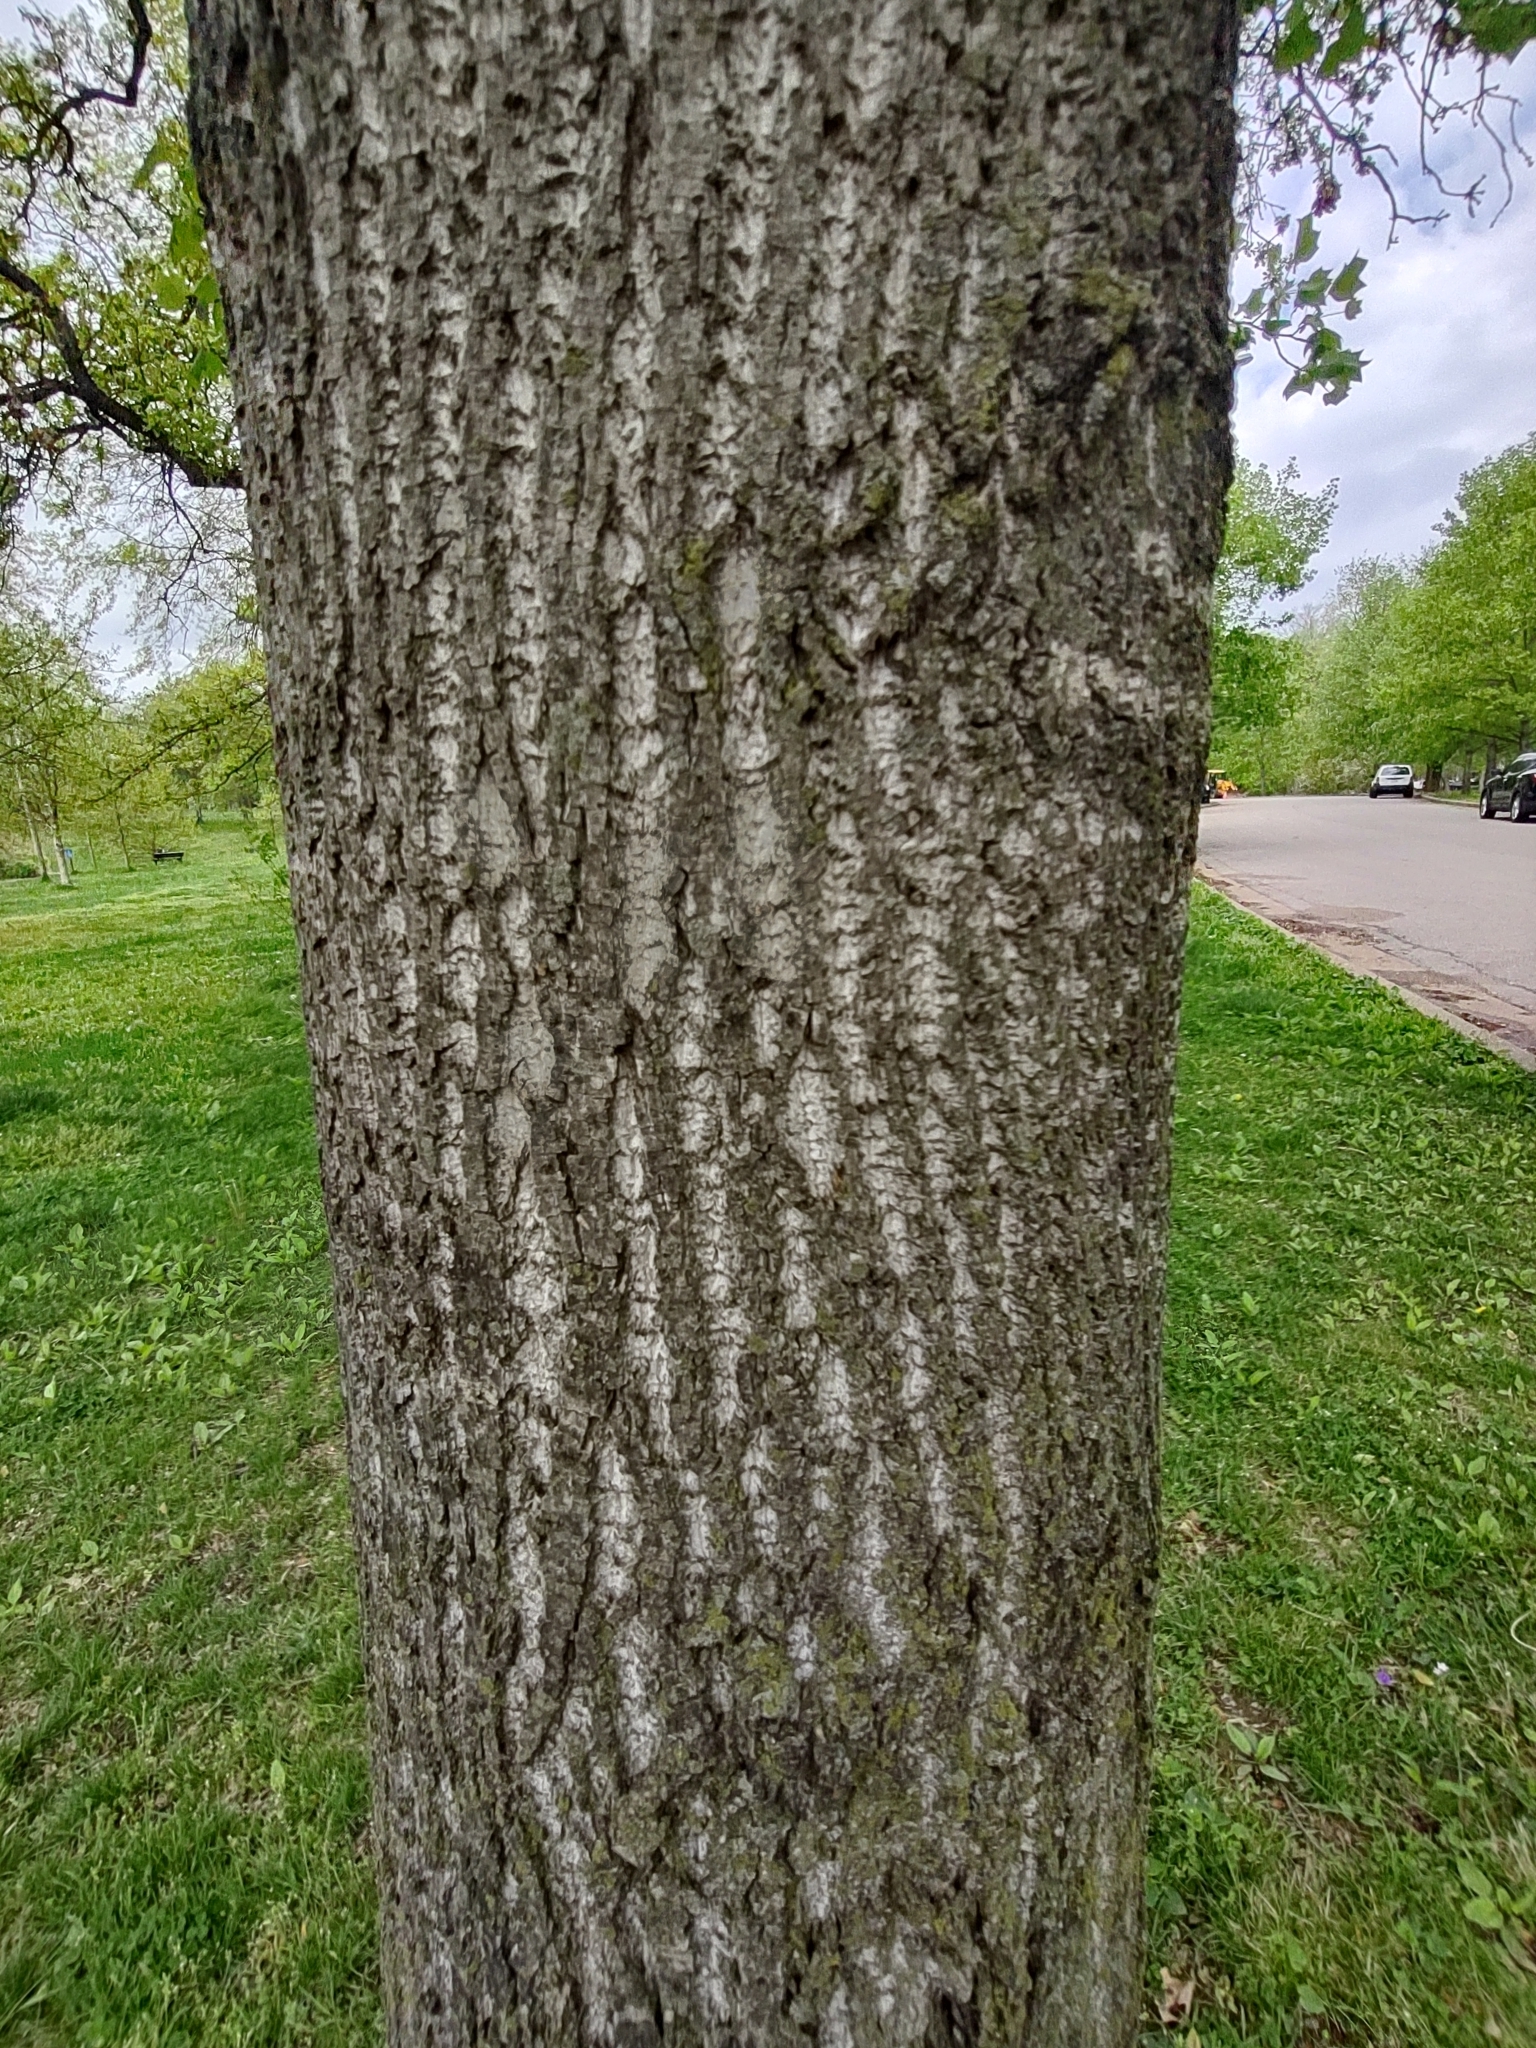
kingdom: Plantae
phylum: Tracheophyta
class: Magnoliopsida
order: Magnoliales
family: Magnoliaceae
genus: Liriodendron
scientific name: Liriodendron tulipifera
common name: Tulip tree
